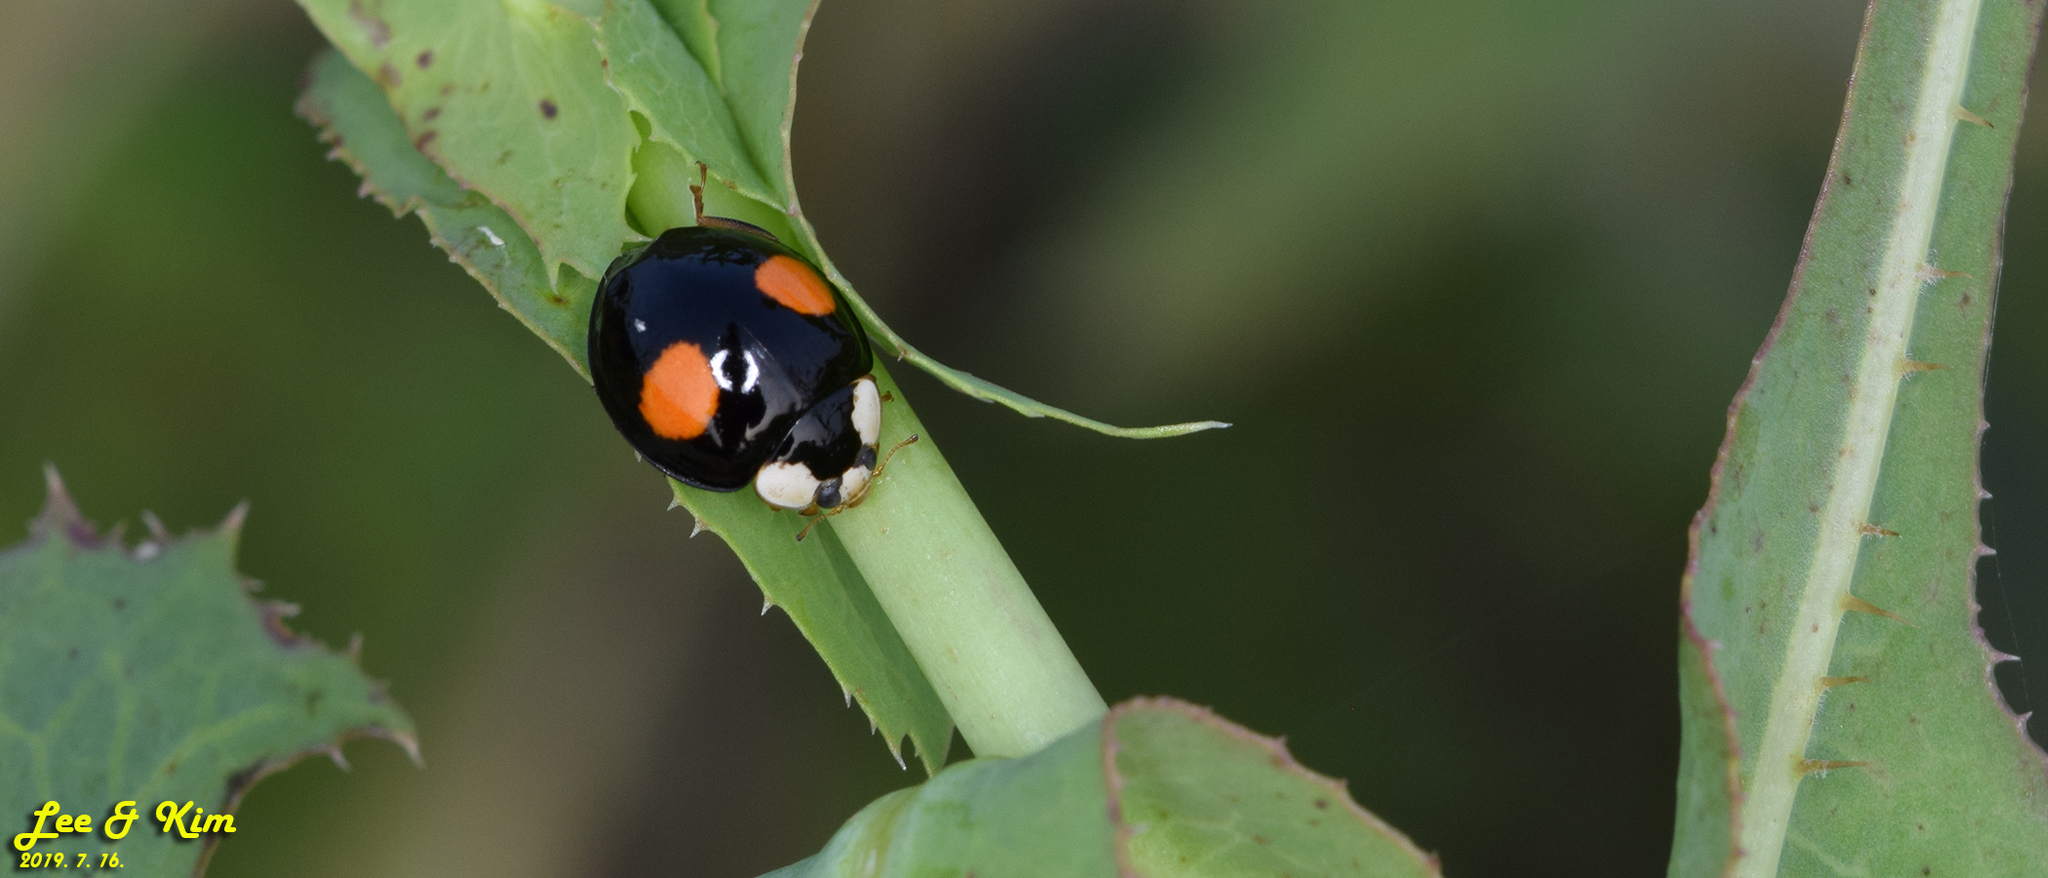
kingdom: Animalia
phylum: Arthropoda
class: Insecta
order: Coleoptera
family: Coccinellidae
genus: Harmonia
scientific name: Harmonia axyridis
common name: Harlequin ladybird
